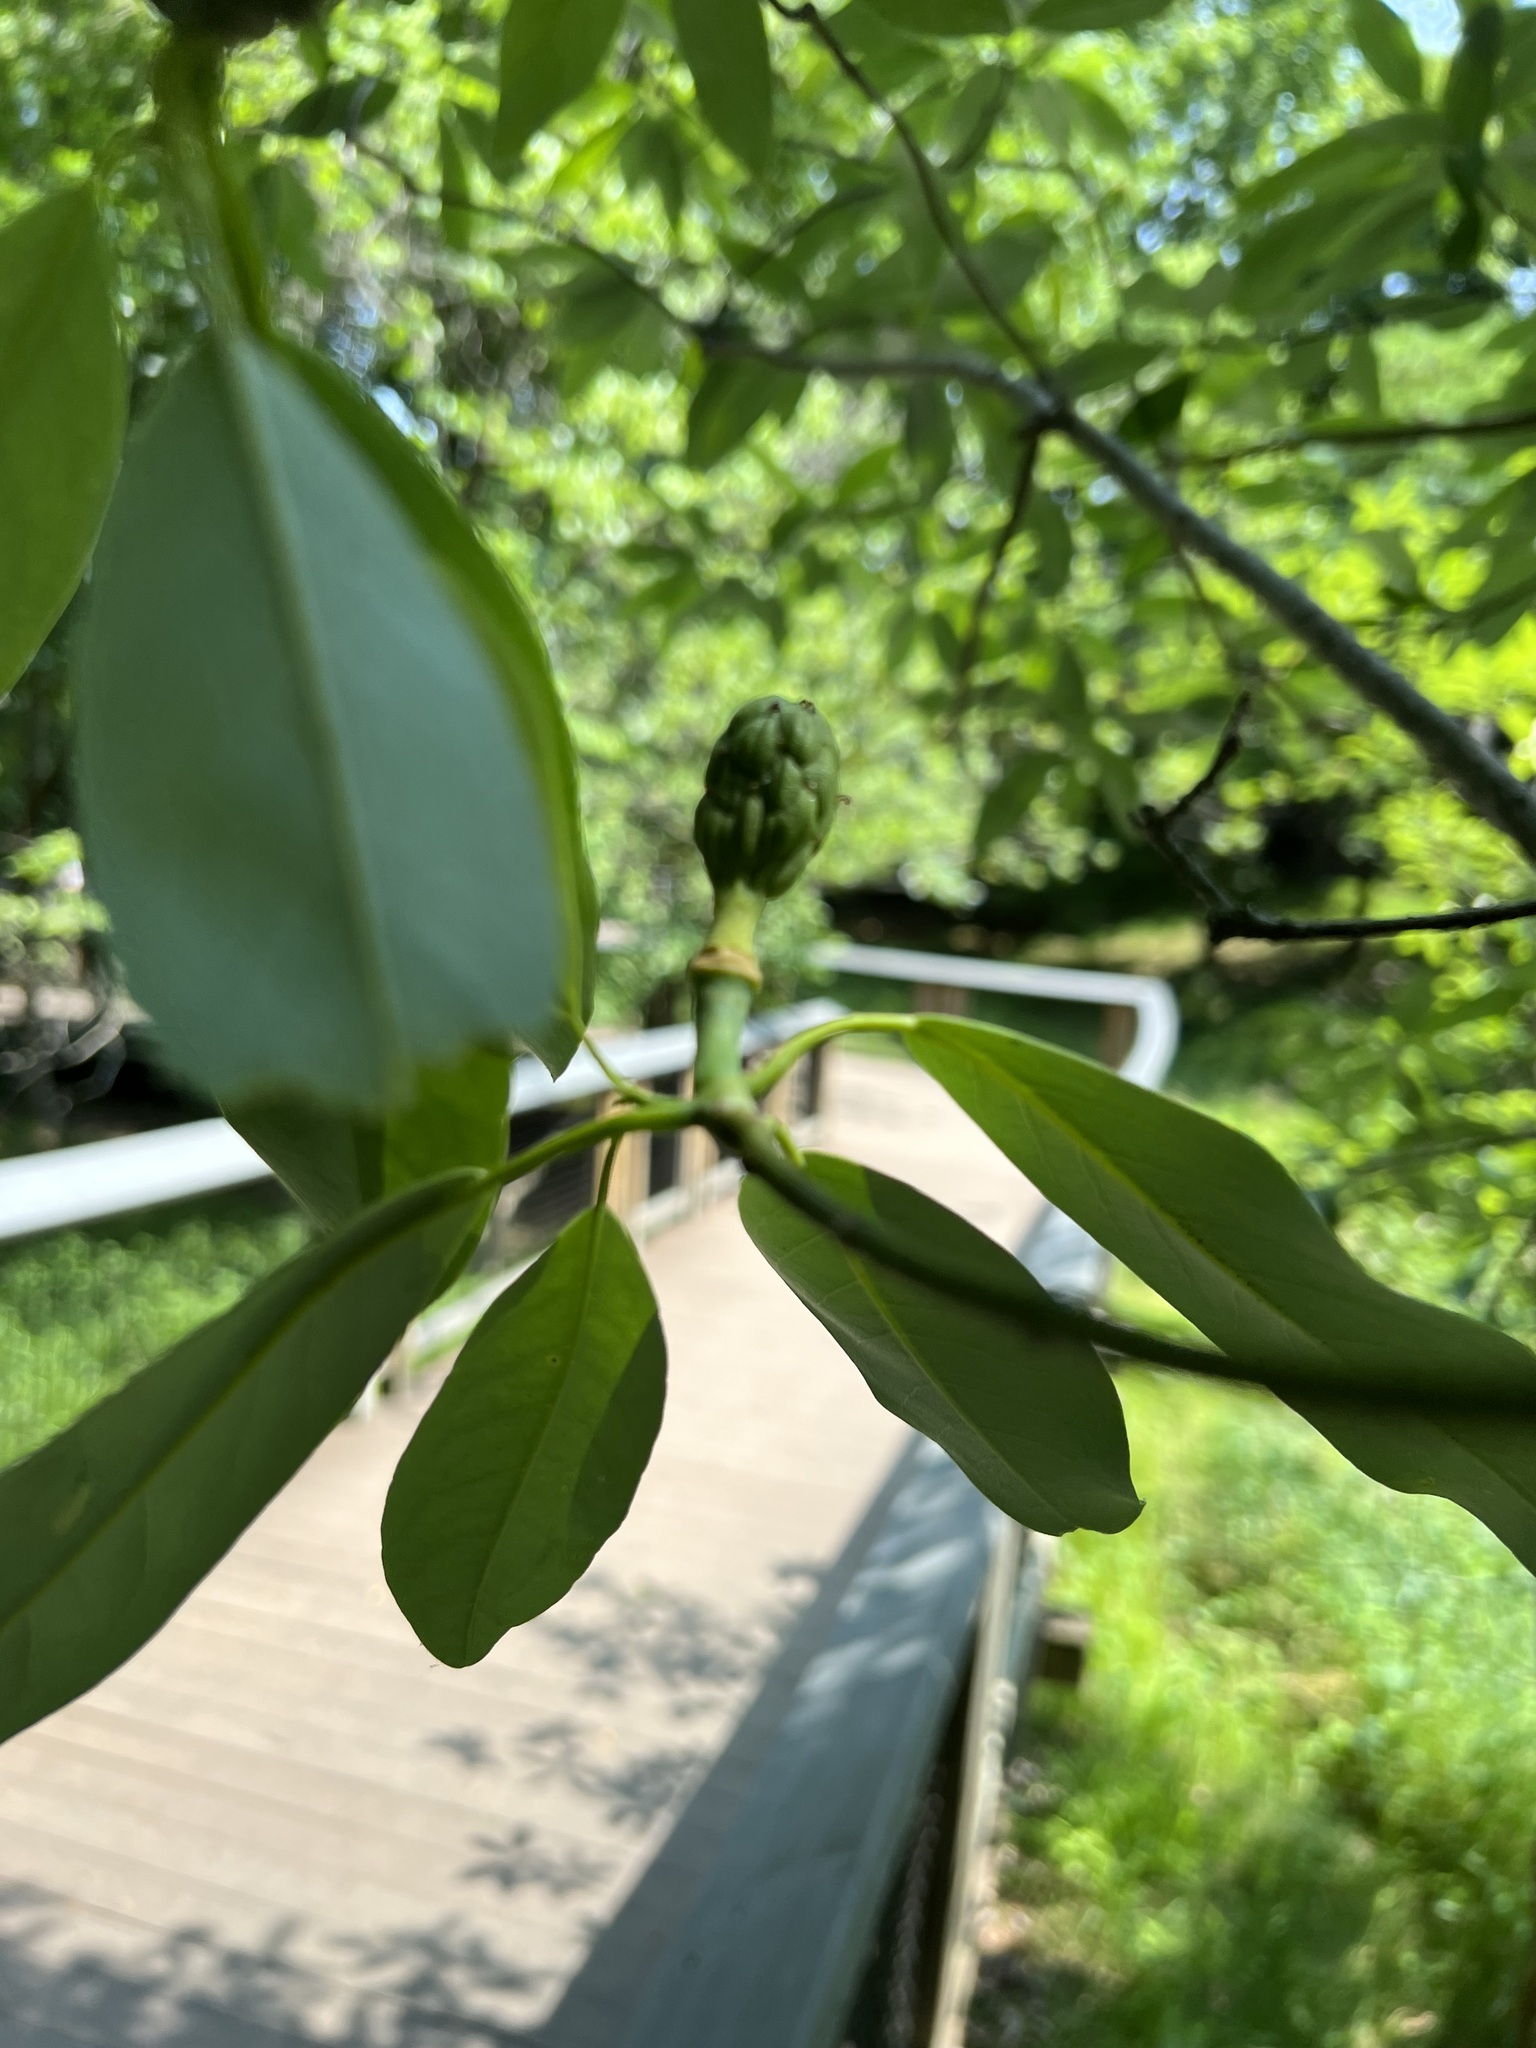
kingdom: Plantae
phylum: Tracheophyta
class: Magnoliopsida
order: Magnoliales
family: Magnoliaceae
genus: Magnolia
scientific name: Magnolia virginiana
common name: Swamp bay
